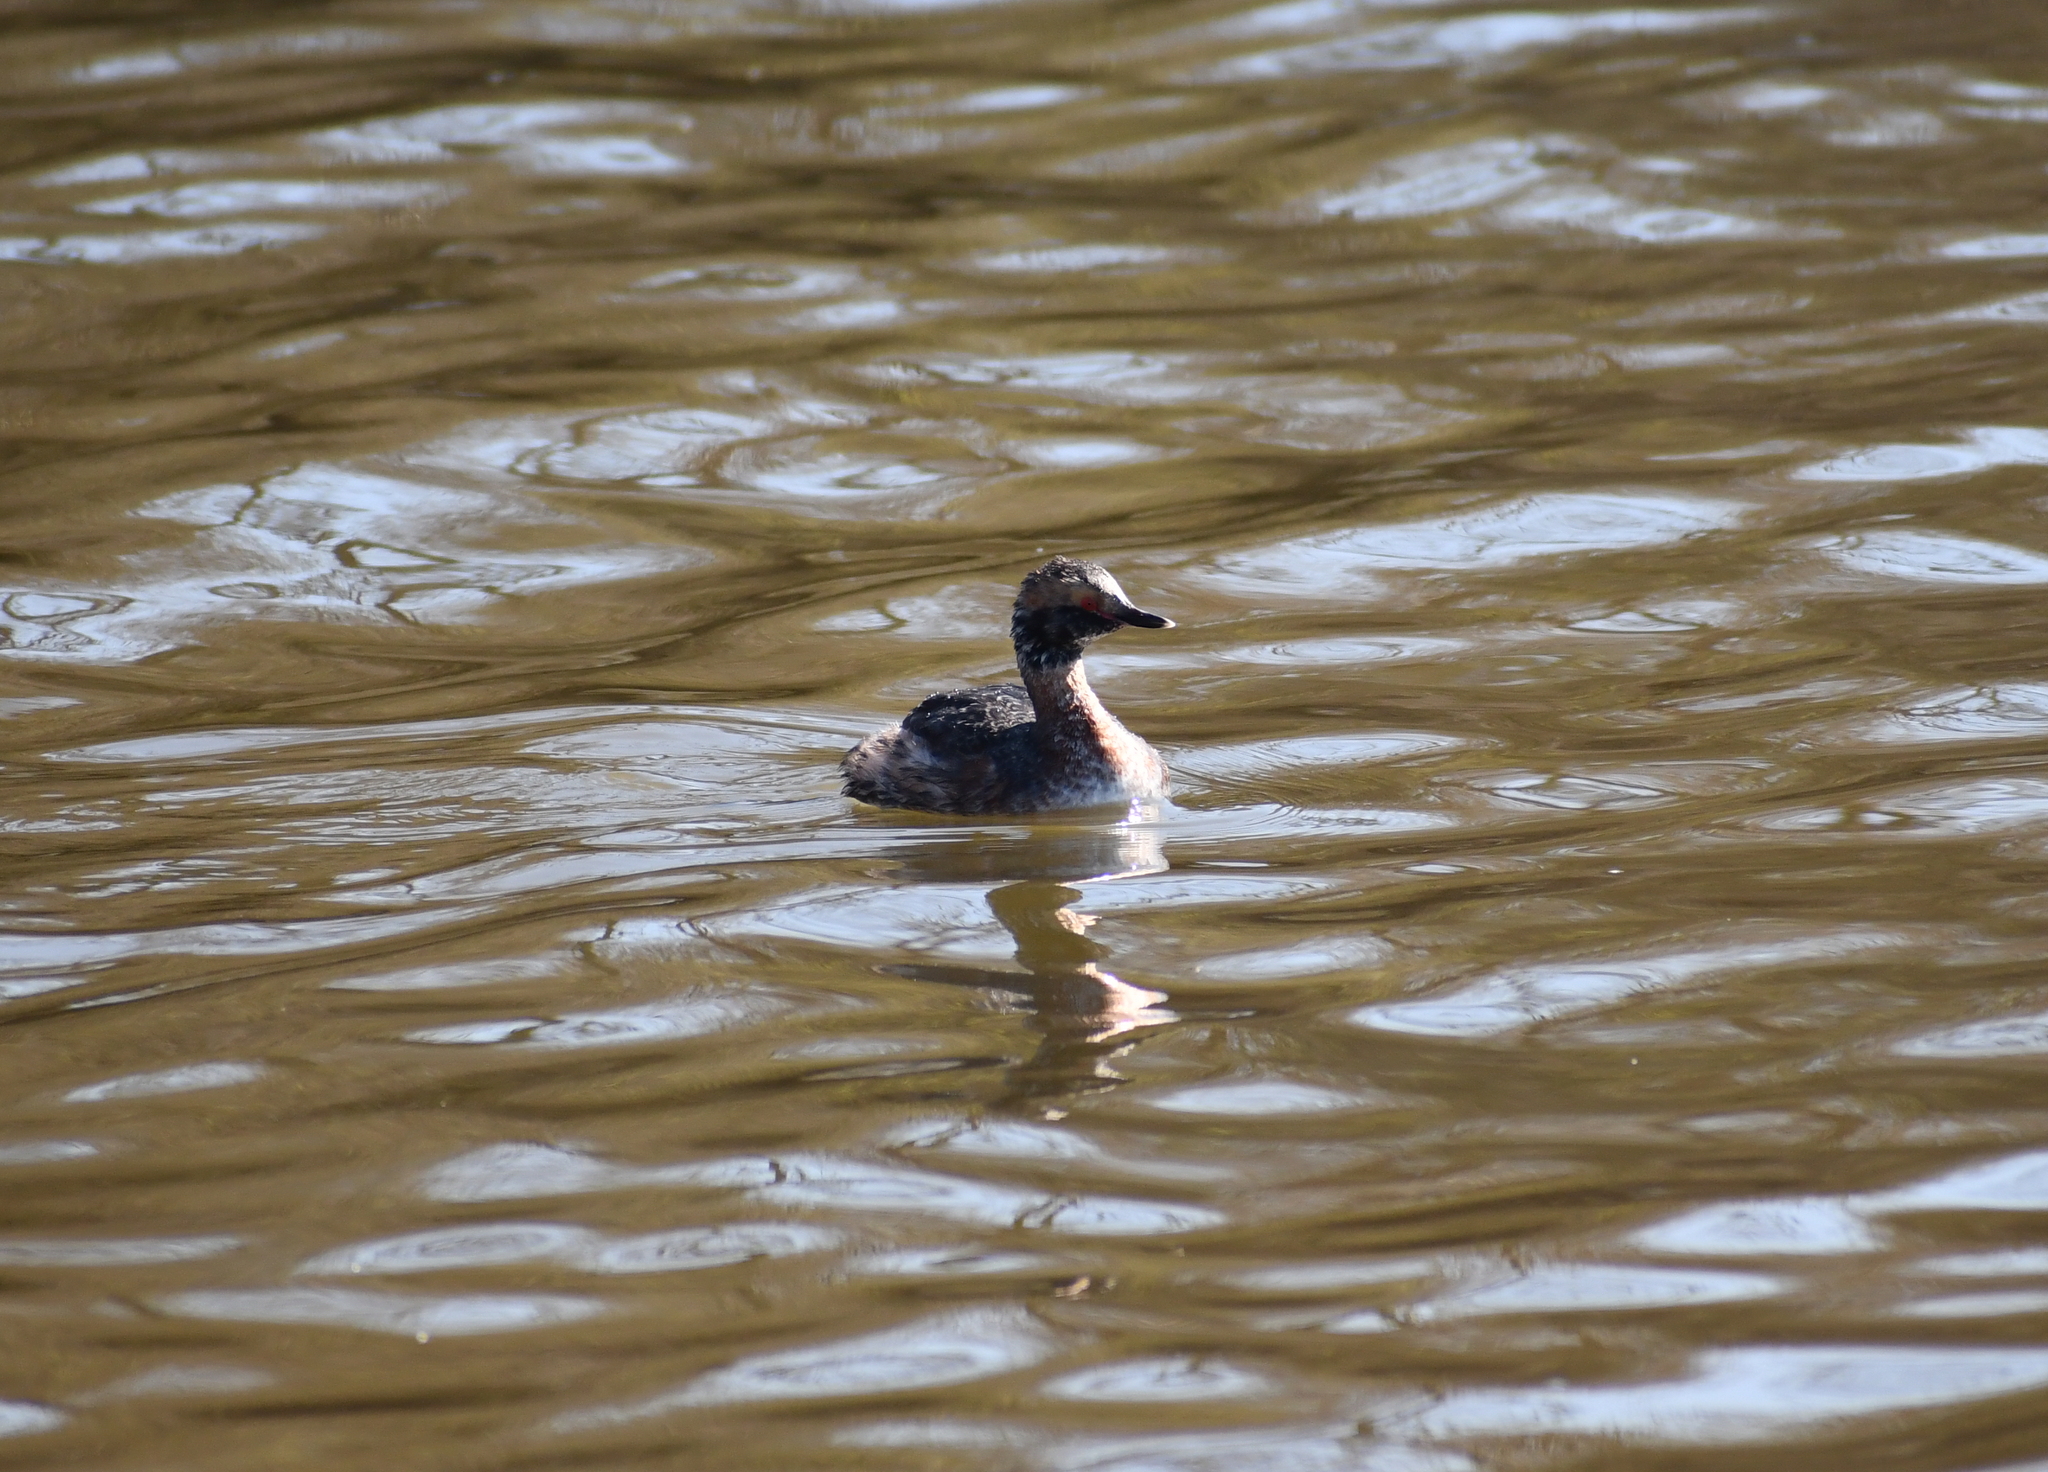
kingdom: Animalia
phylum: Chordata
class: Aves
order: Podicipediformes
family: Podicipedidae
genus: Podiceps
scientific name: Podiceps auritus
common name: Horned grebe
